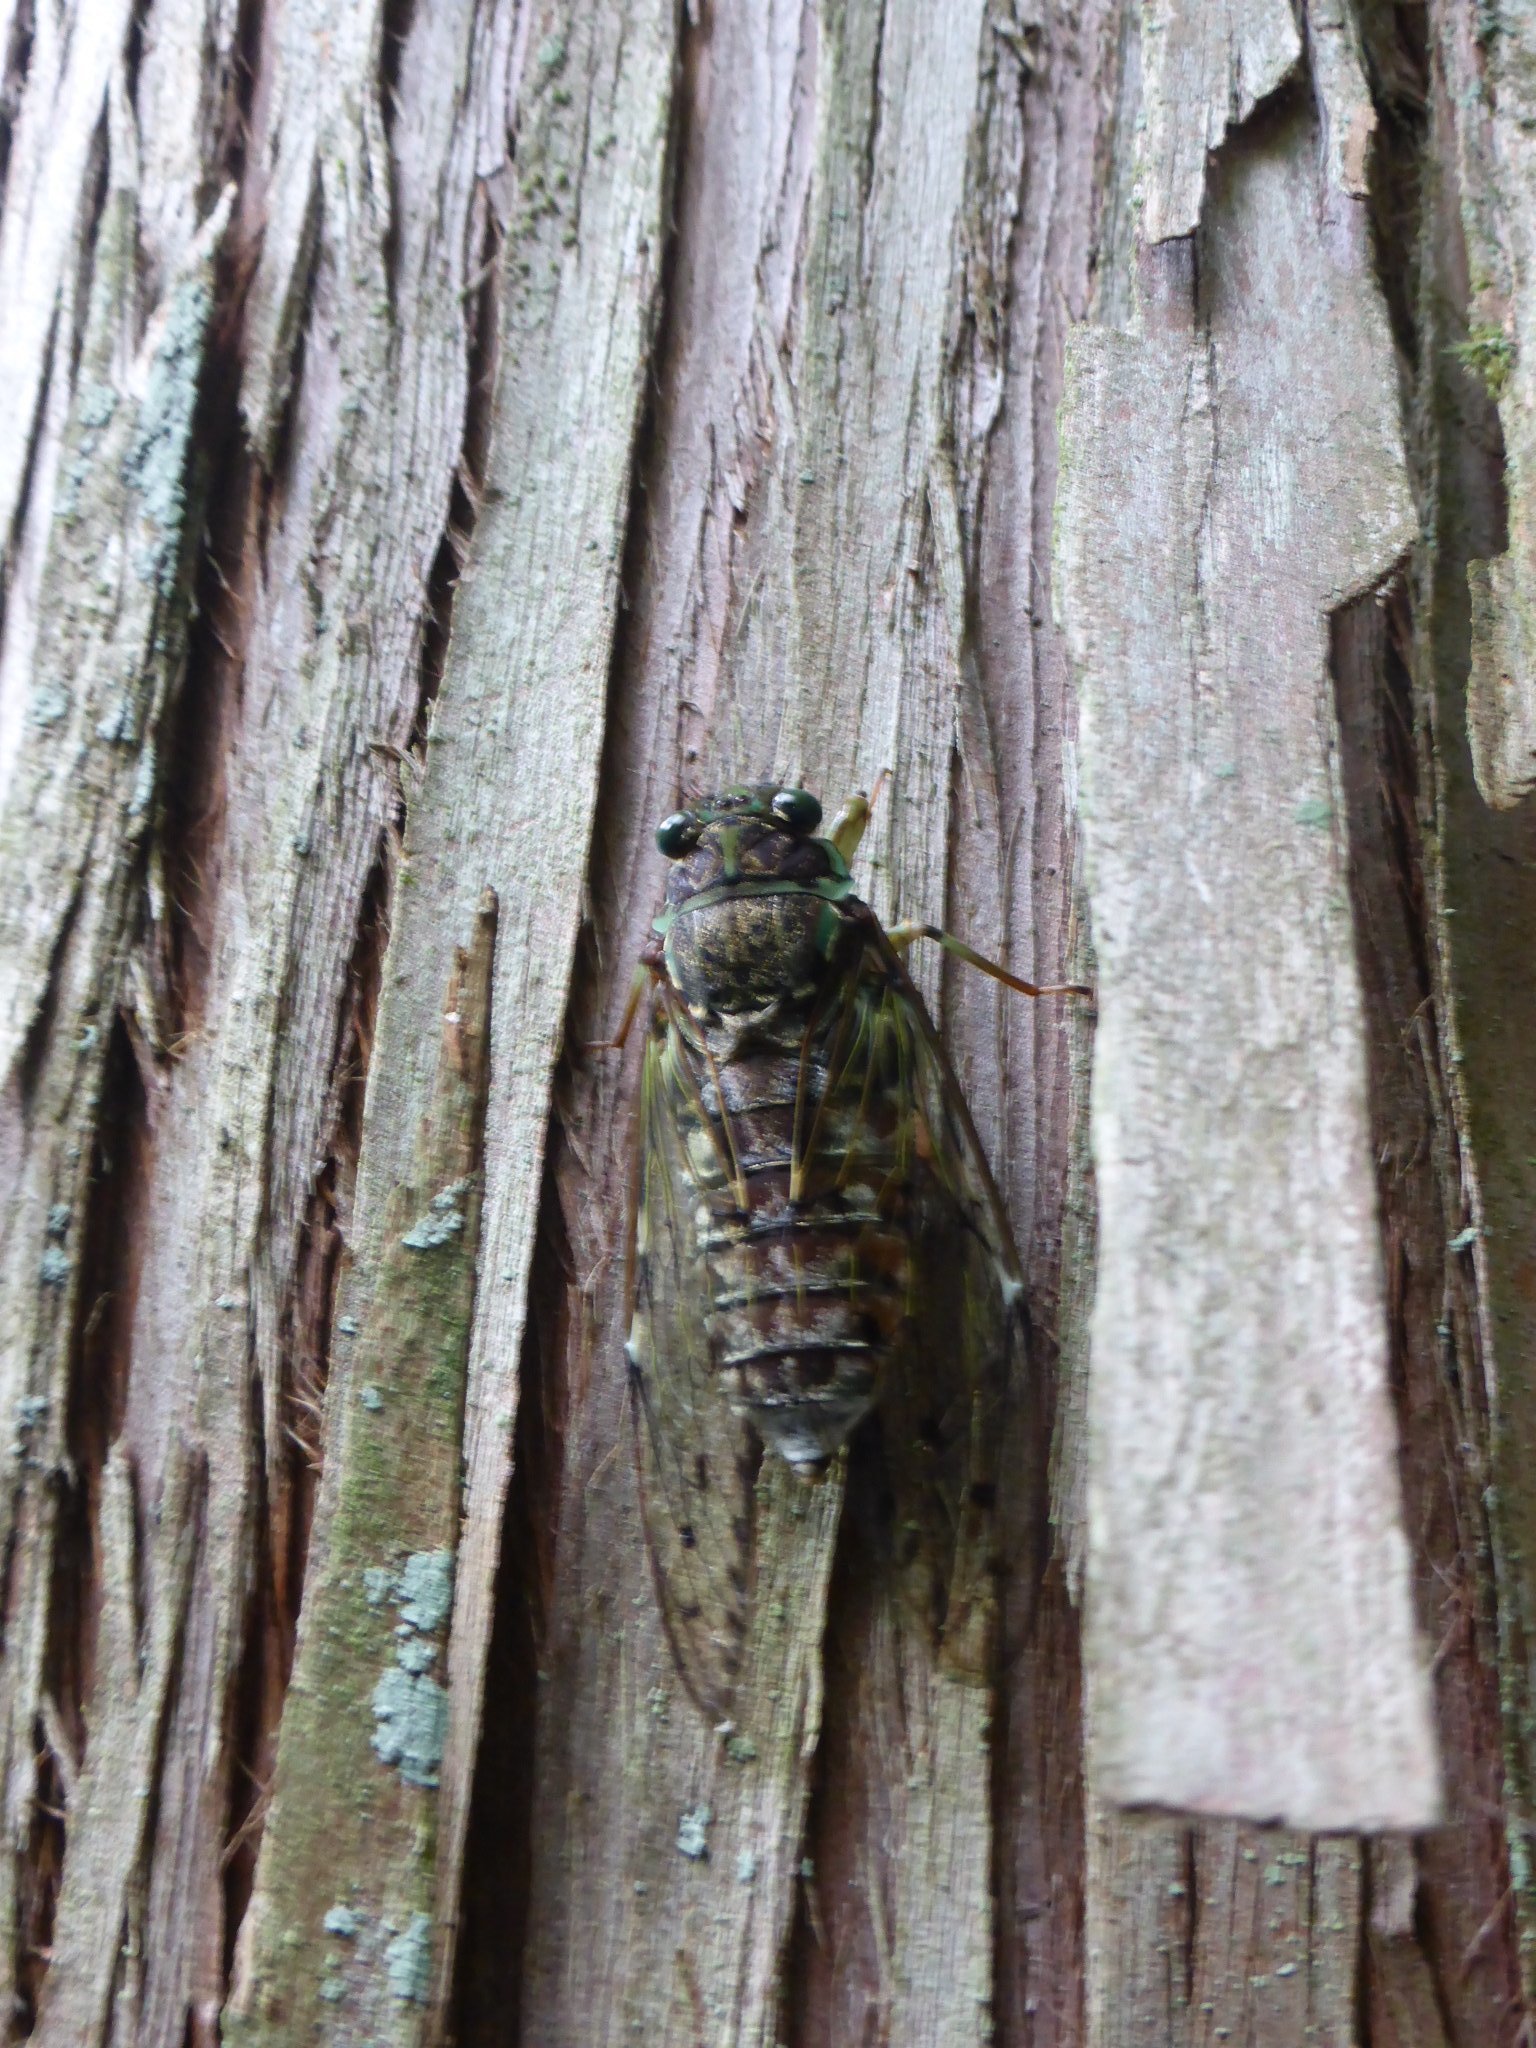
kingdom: Animalia
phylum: Arthropoda
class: Insecta
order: Hemiptera
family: Cicadidae
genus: Tanna
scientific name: Tanna japonensis
